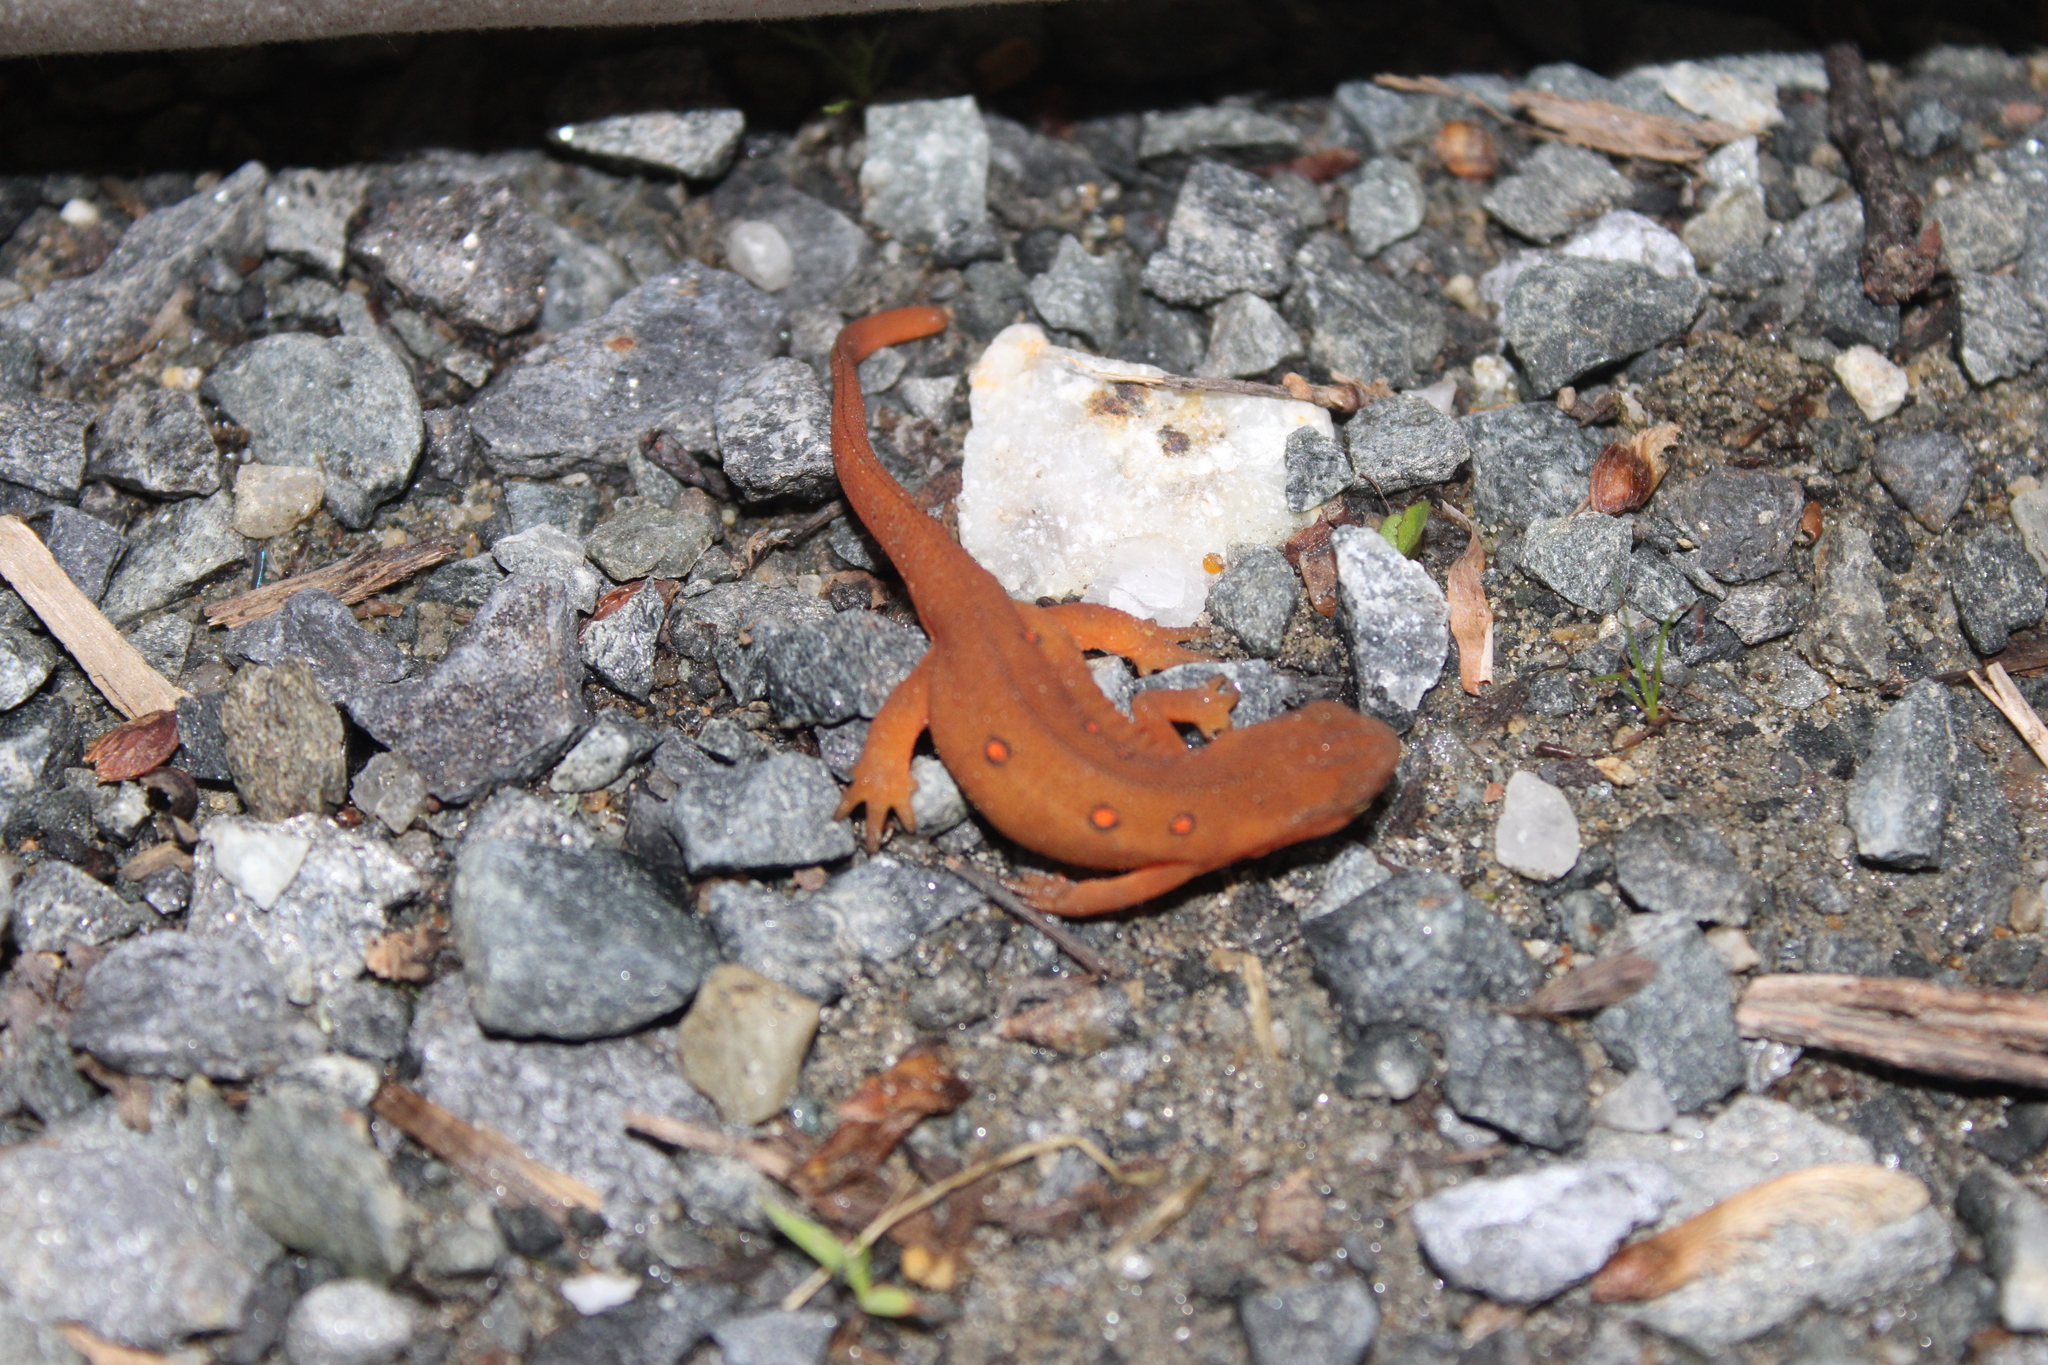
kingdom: Animalia
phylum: Chordata
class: Amphibia
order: Caudata
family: Salamandridae
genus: Notophthalmus
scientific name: Notophthalmus viridescens
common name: Eastern newt
